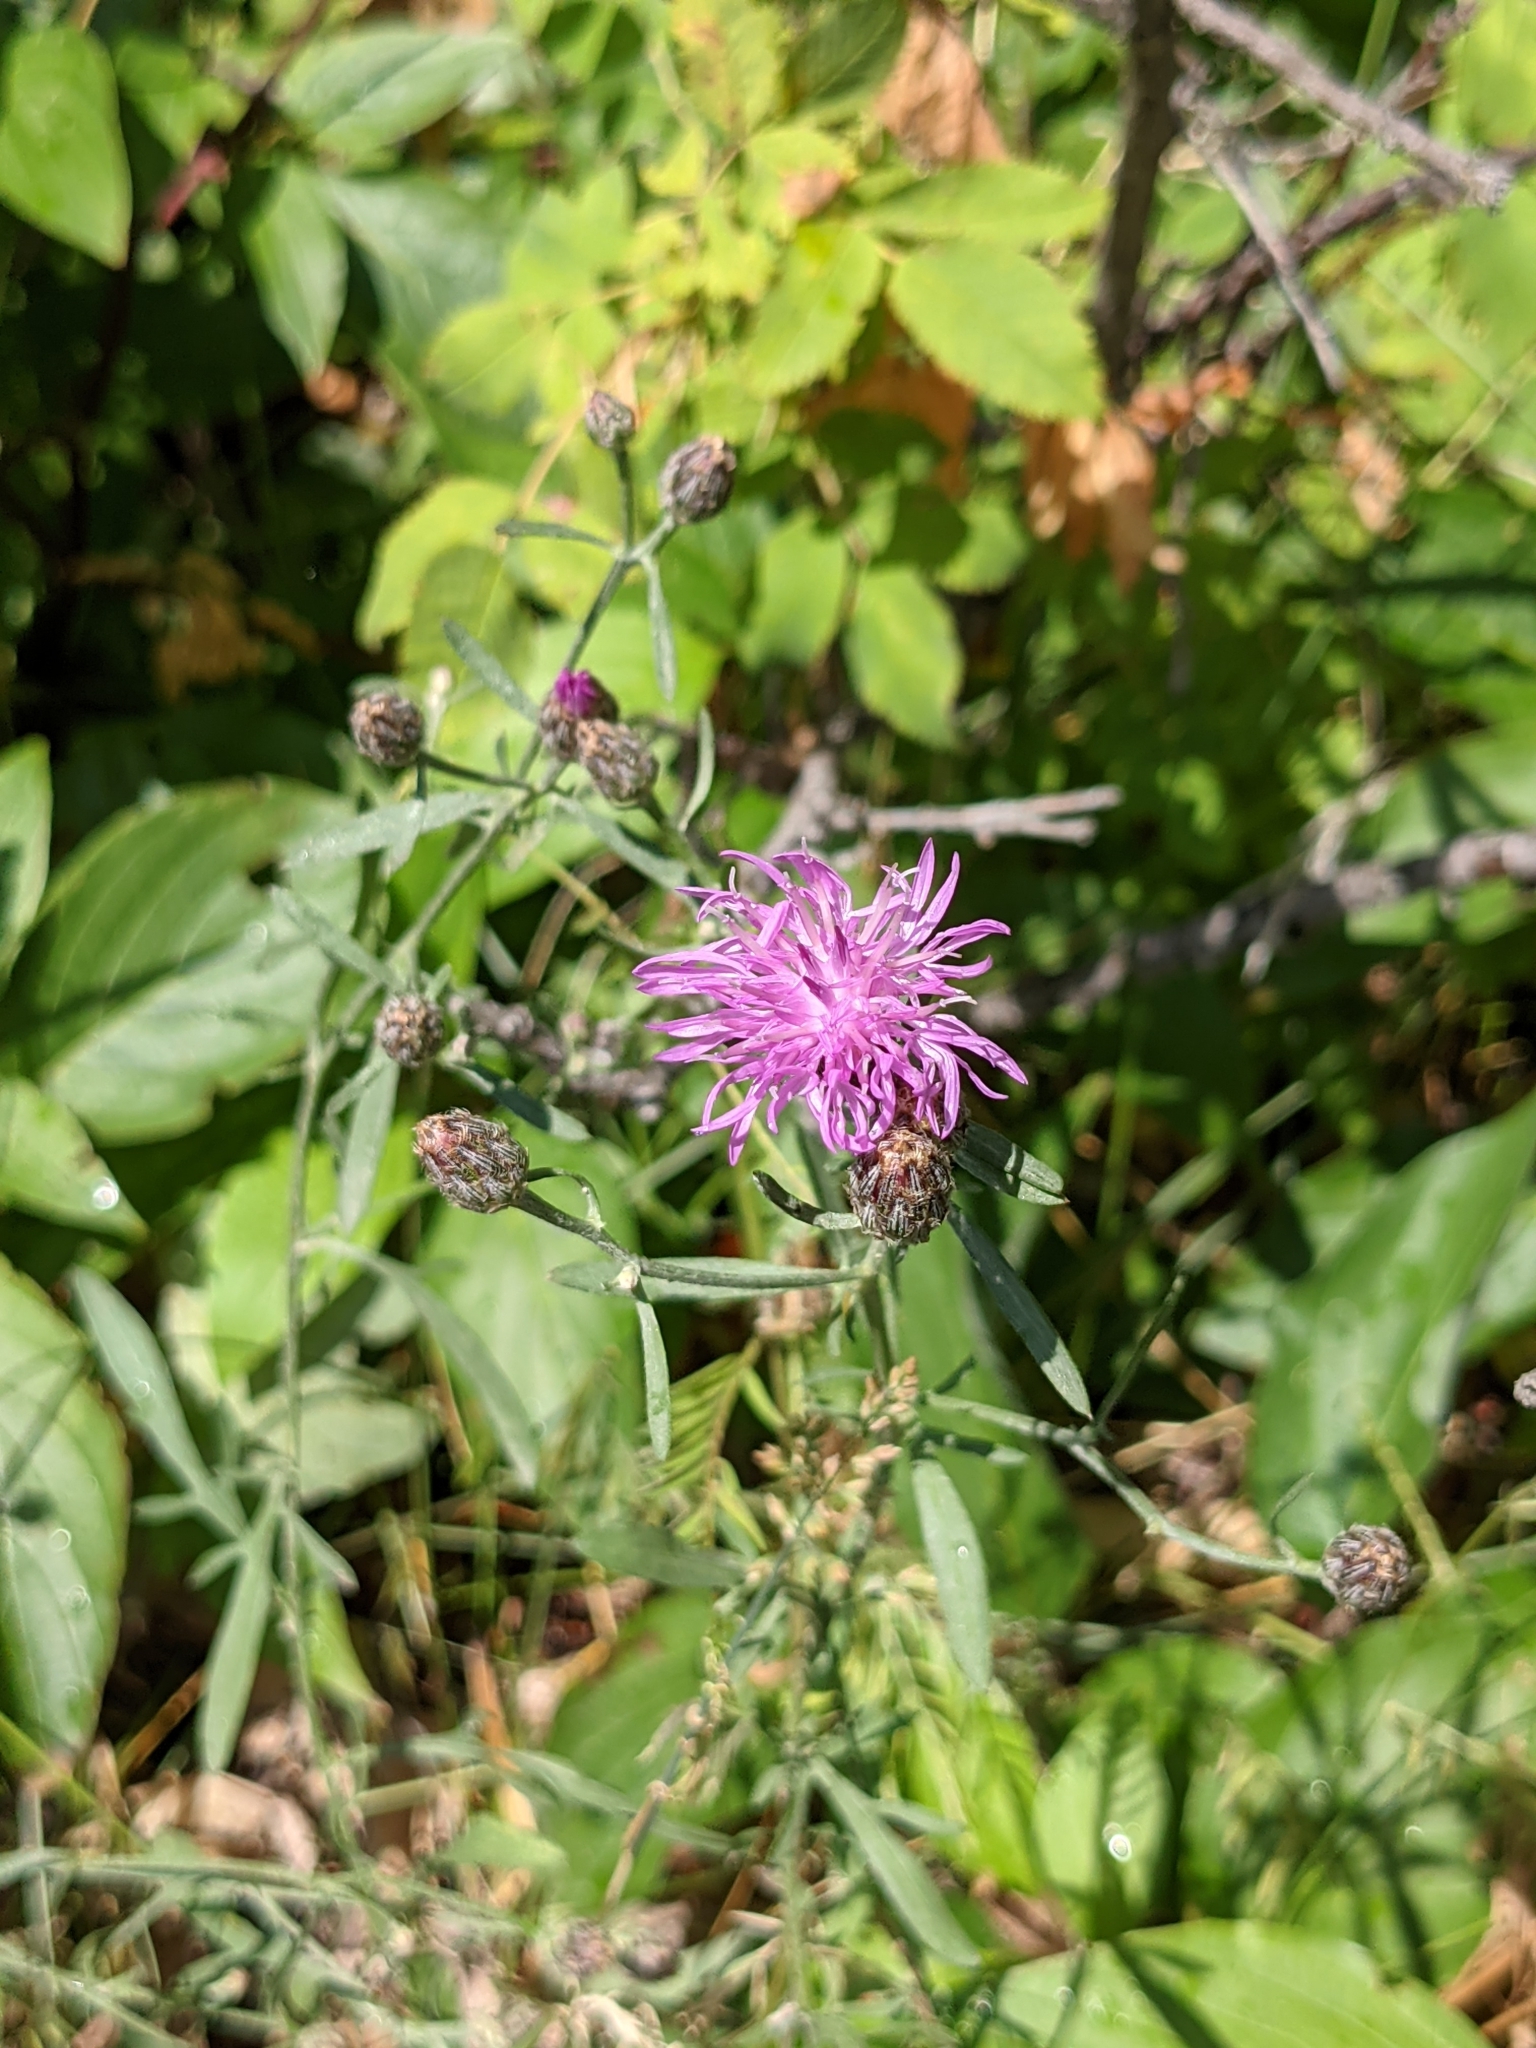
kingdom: Plantae
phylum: Tracheophyta
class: Magnoliopsida
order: Asterales
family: Asteraceae
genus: Centaurea
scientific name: Centaurea stoebe
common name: Spotted knapweed
